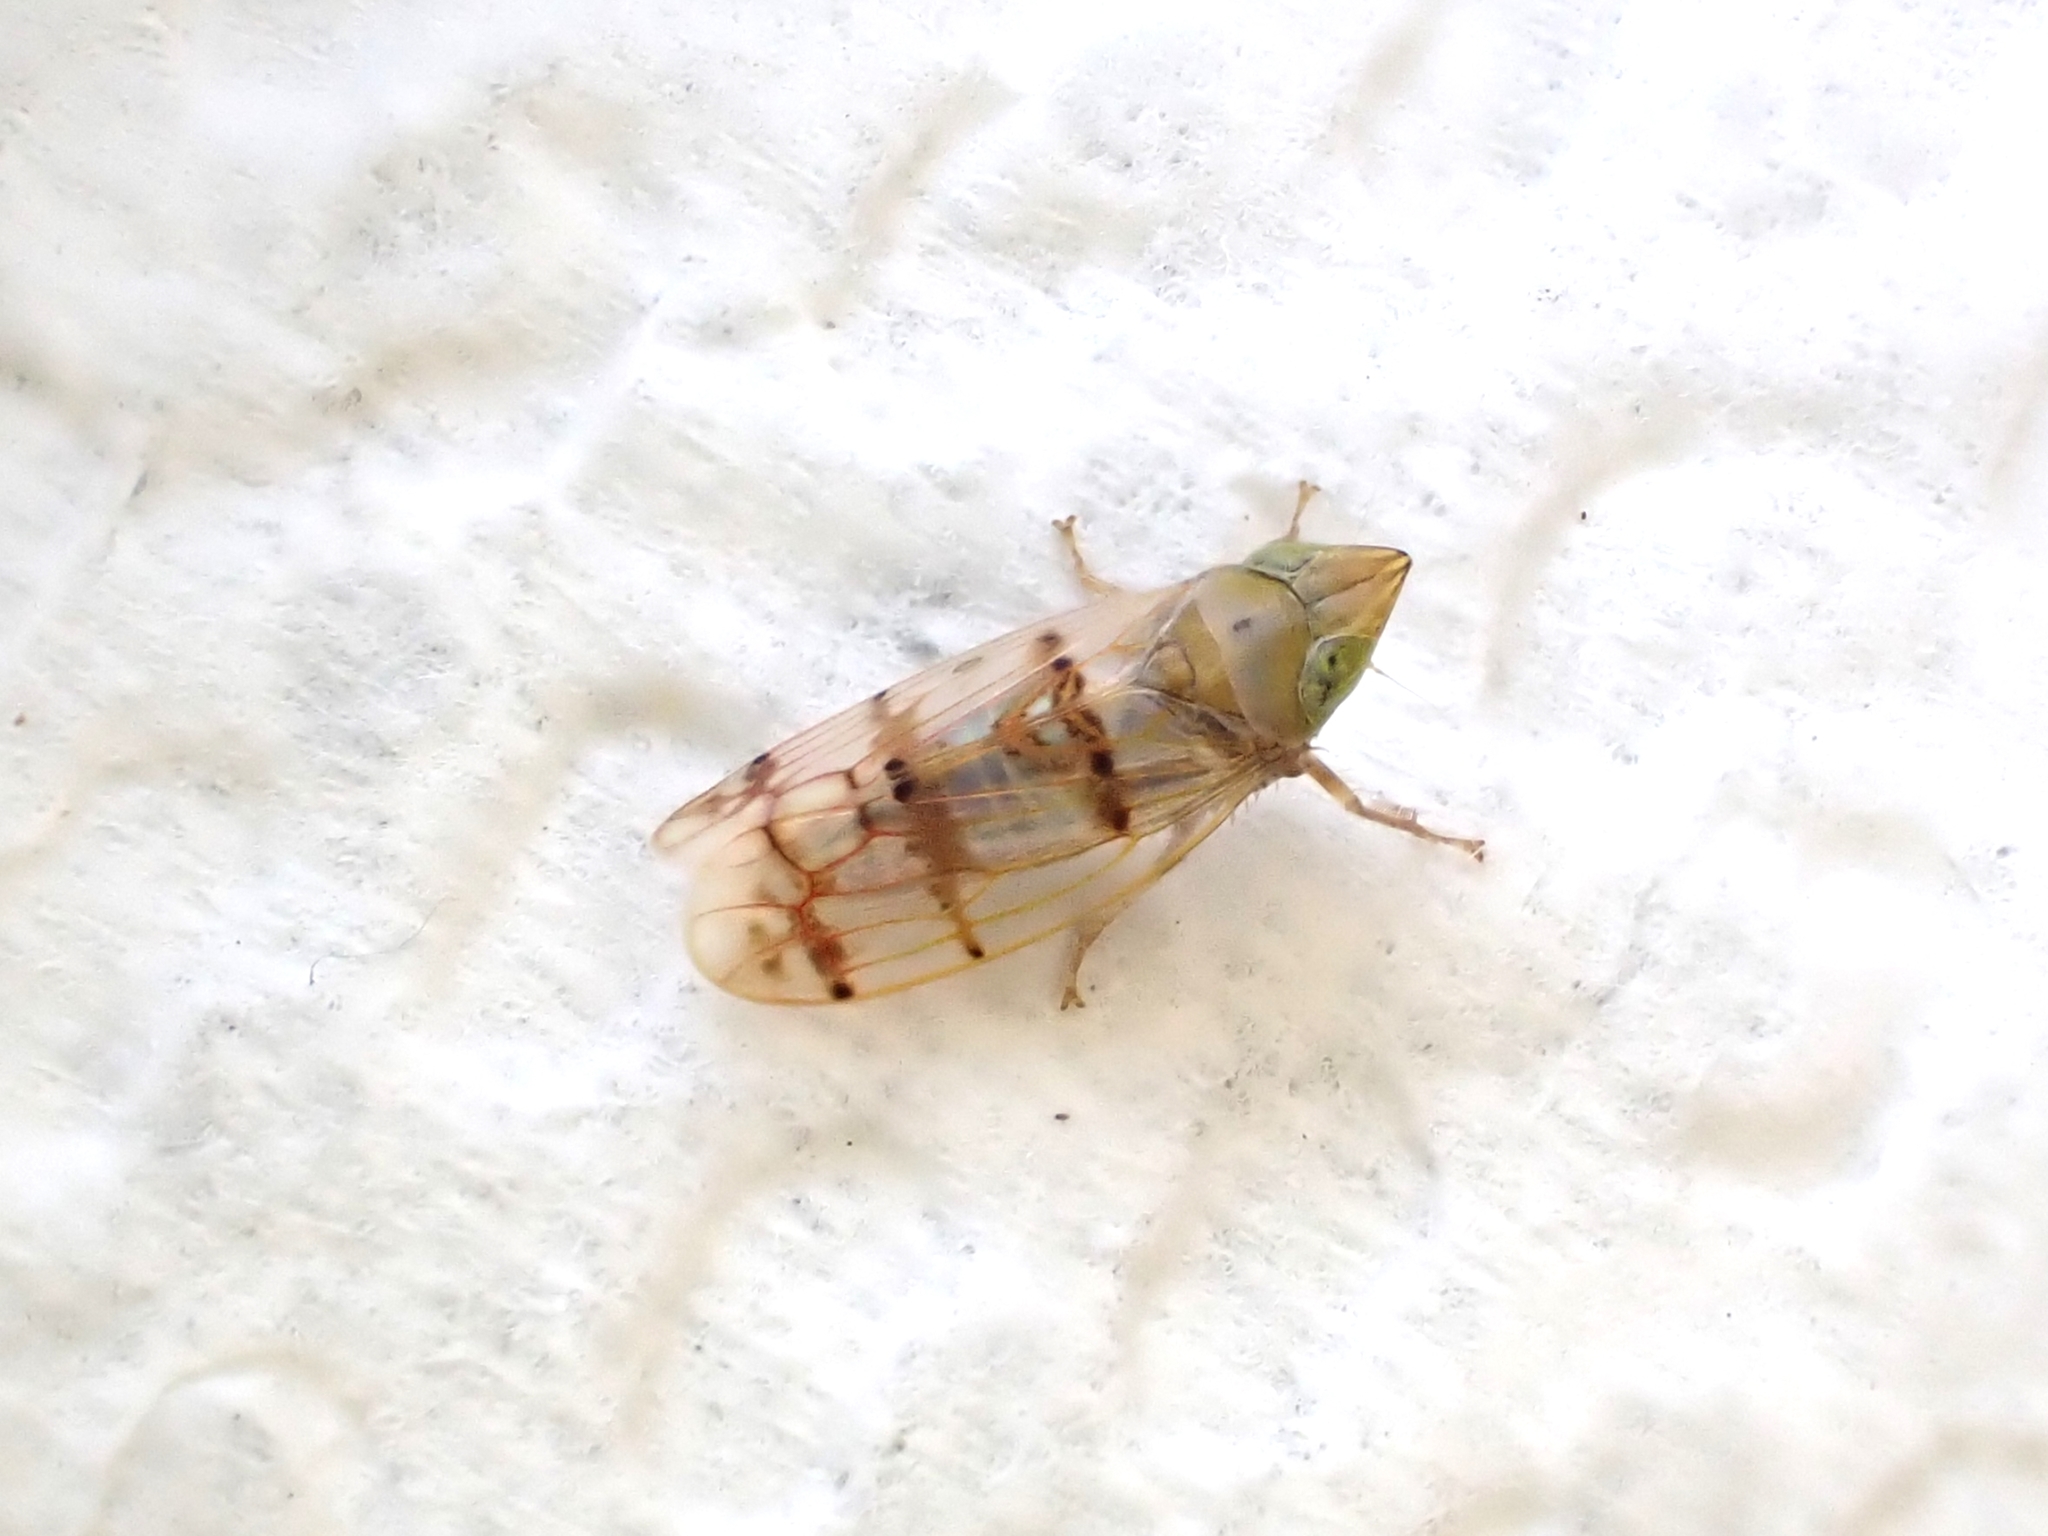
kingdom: Animalia
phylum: Arthropoda
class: Insecta
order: Hemiptera
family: Cicadellidae
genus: Japananus
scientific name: Japananus hyalinus
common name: The japanese maple leafhopper
